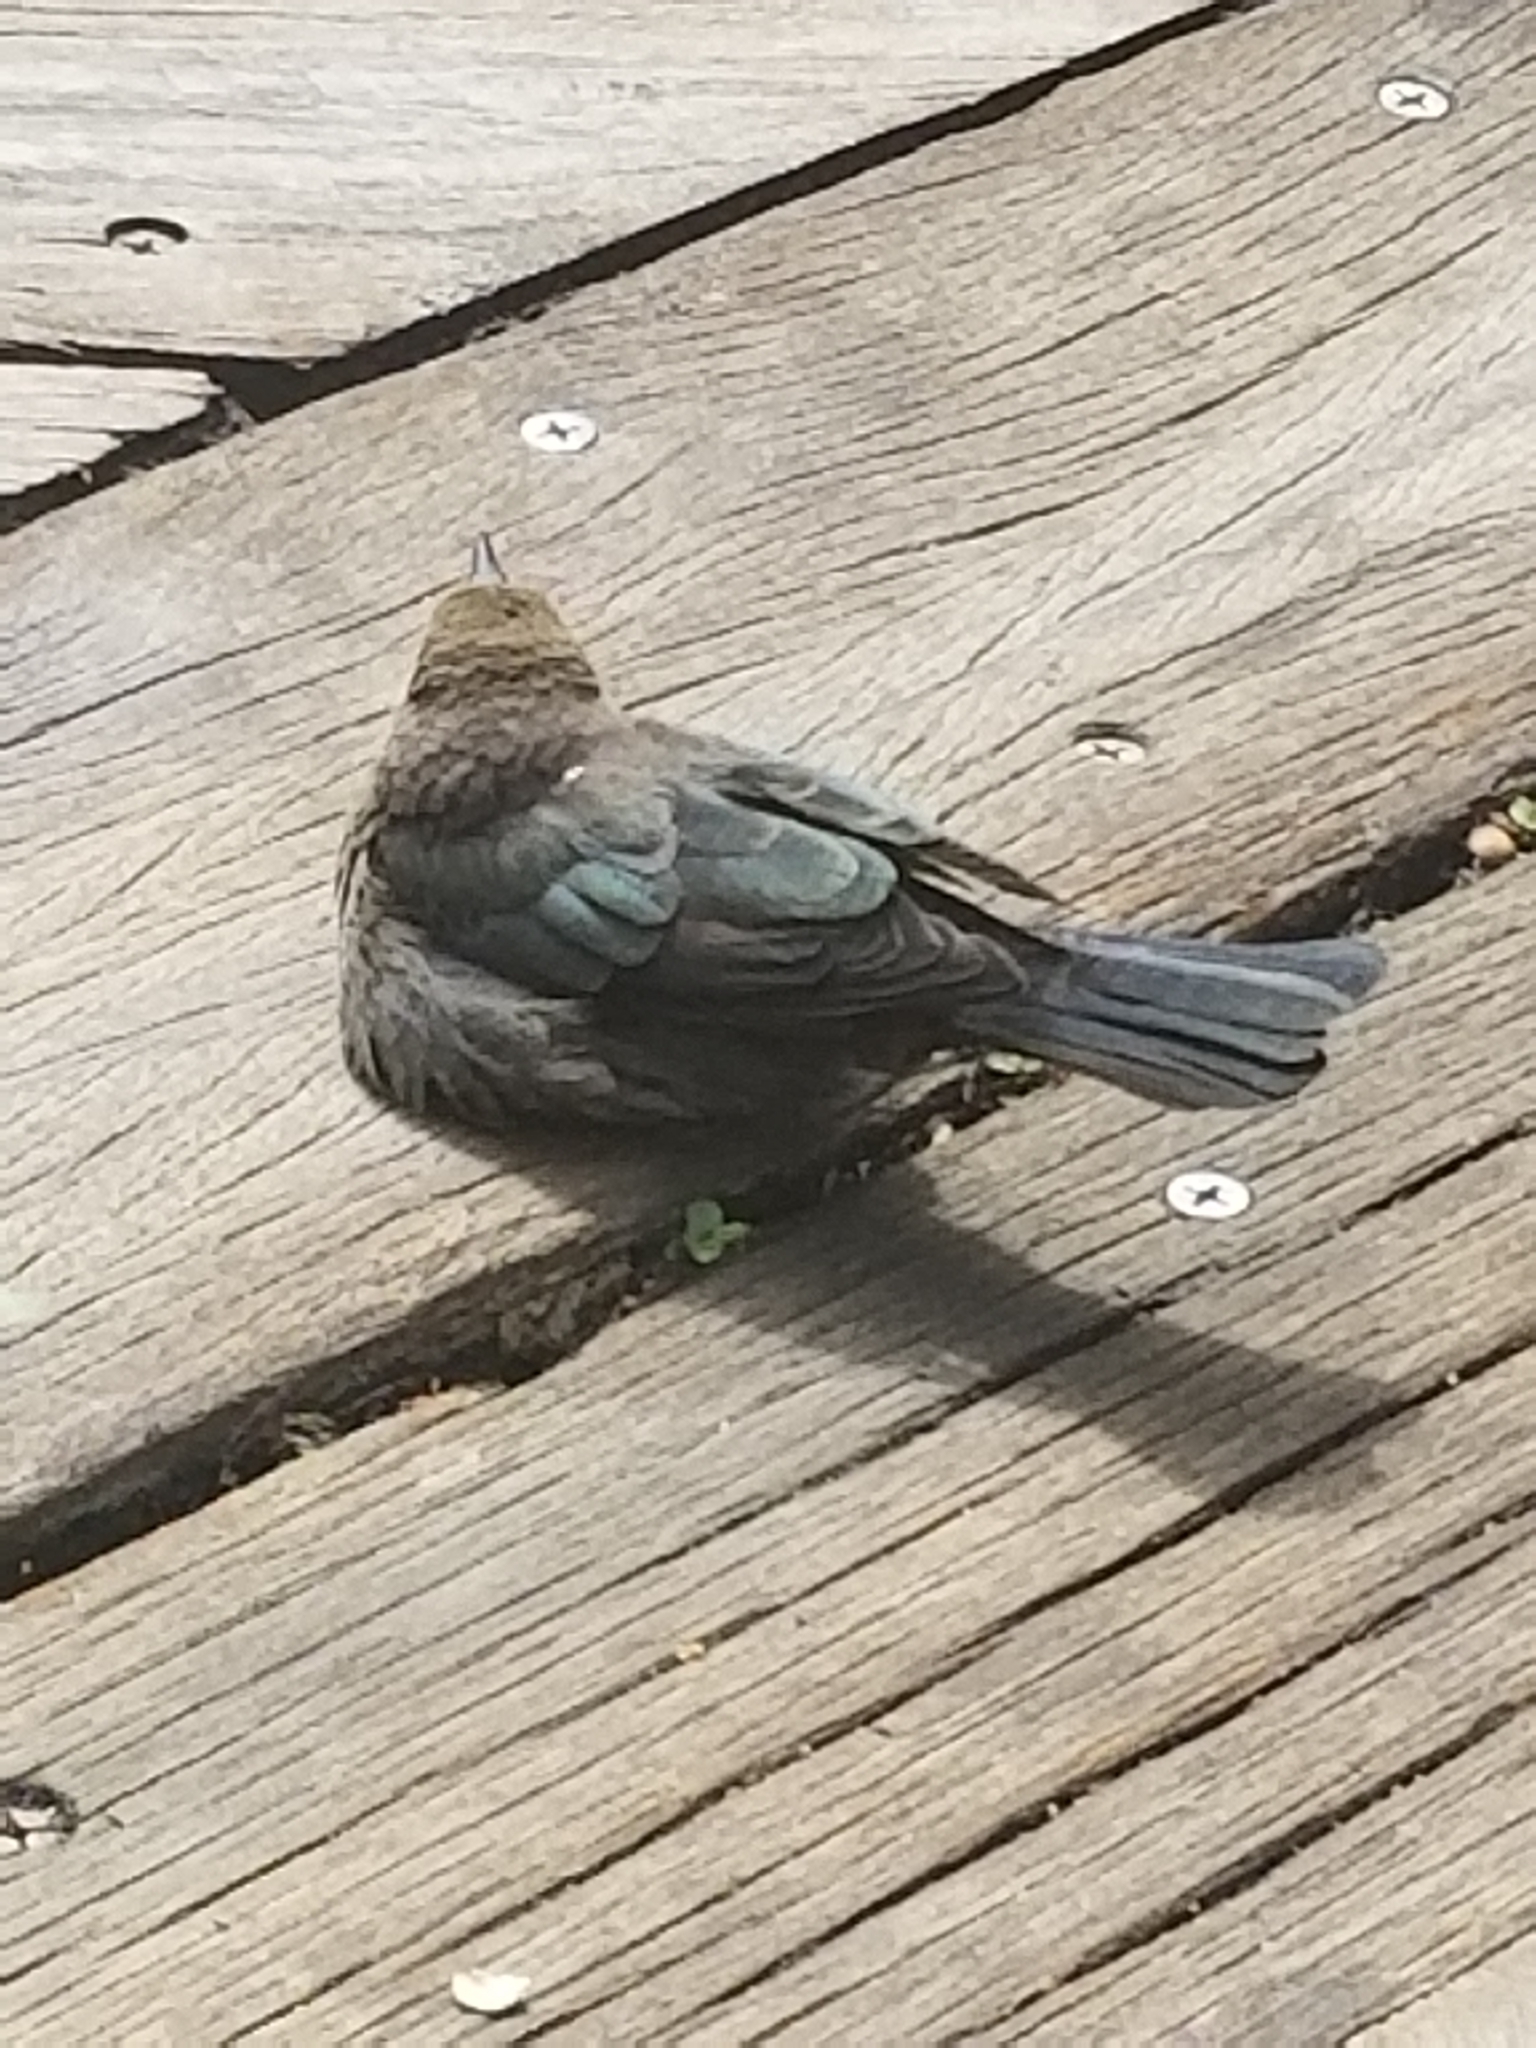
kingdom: Animalia
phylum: Chordata
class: Aves
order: Passeriformes
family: Icteridae
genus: Euphagus
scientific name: Euphagus cyanocephalus
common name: Brewer's blackbird
